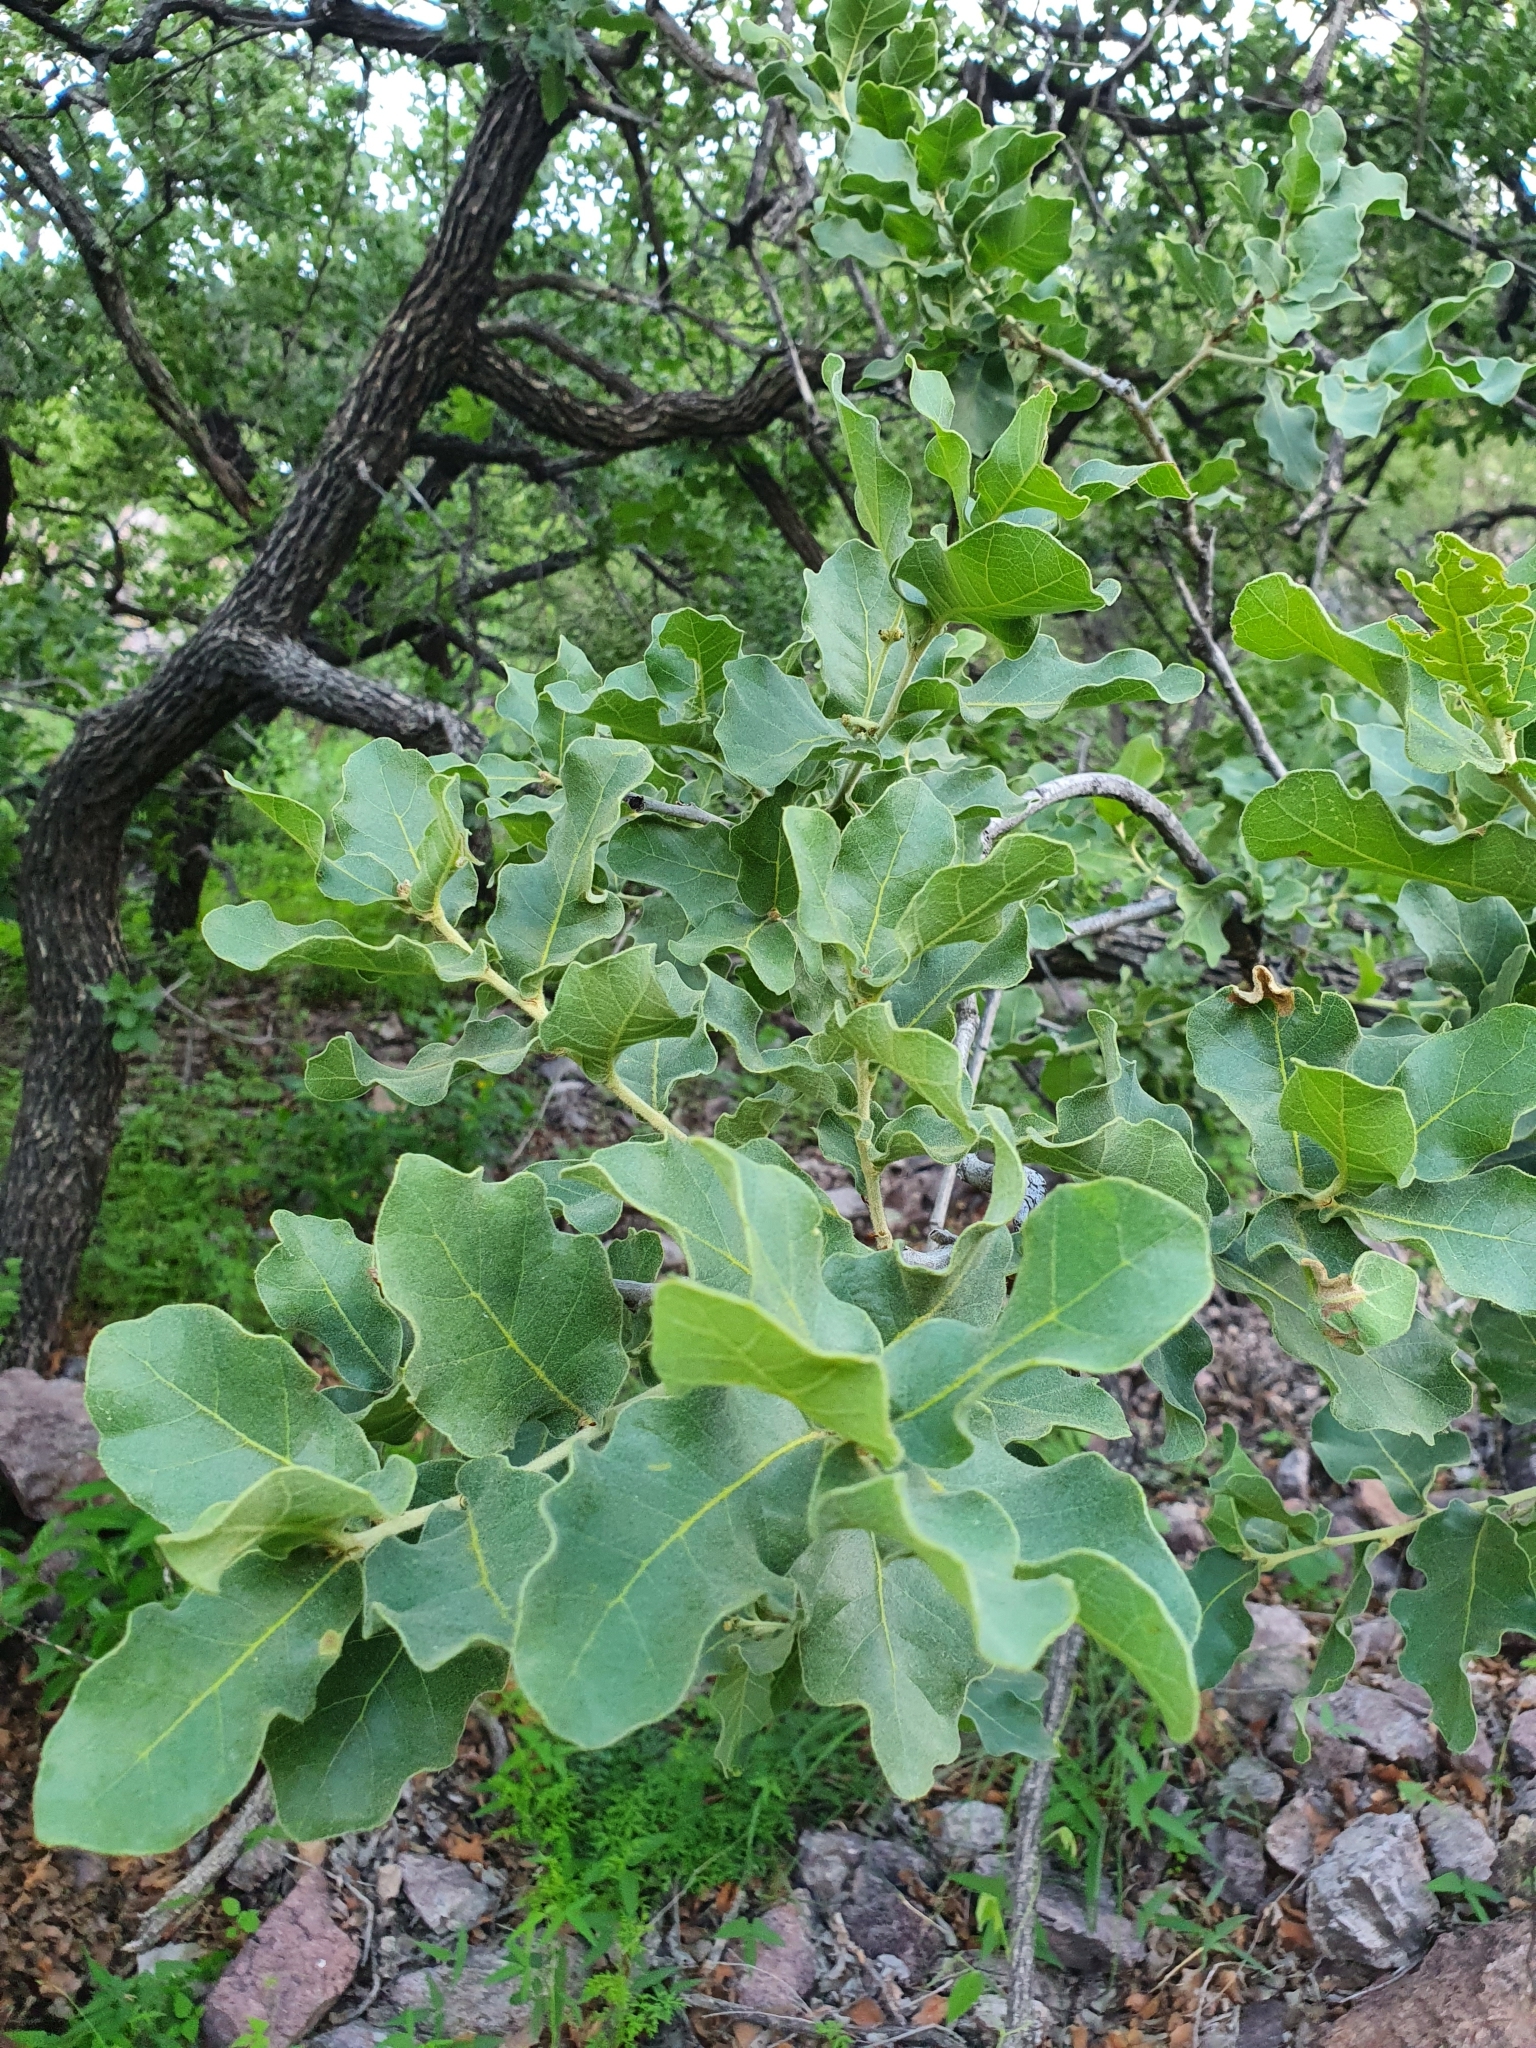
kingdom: Plantae
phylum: Tracheophyta
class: Magnoliopsida
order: Fagales
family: Fagaceae
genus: Quercus
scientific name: Quercus chihuahuensis
